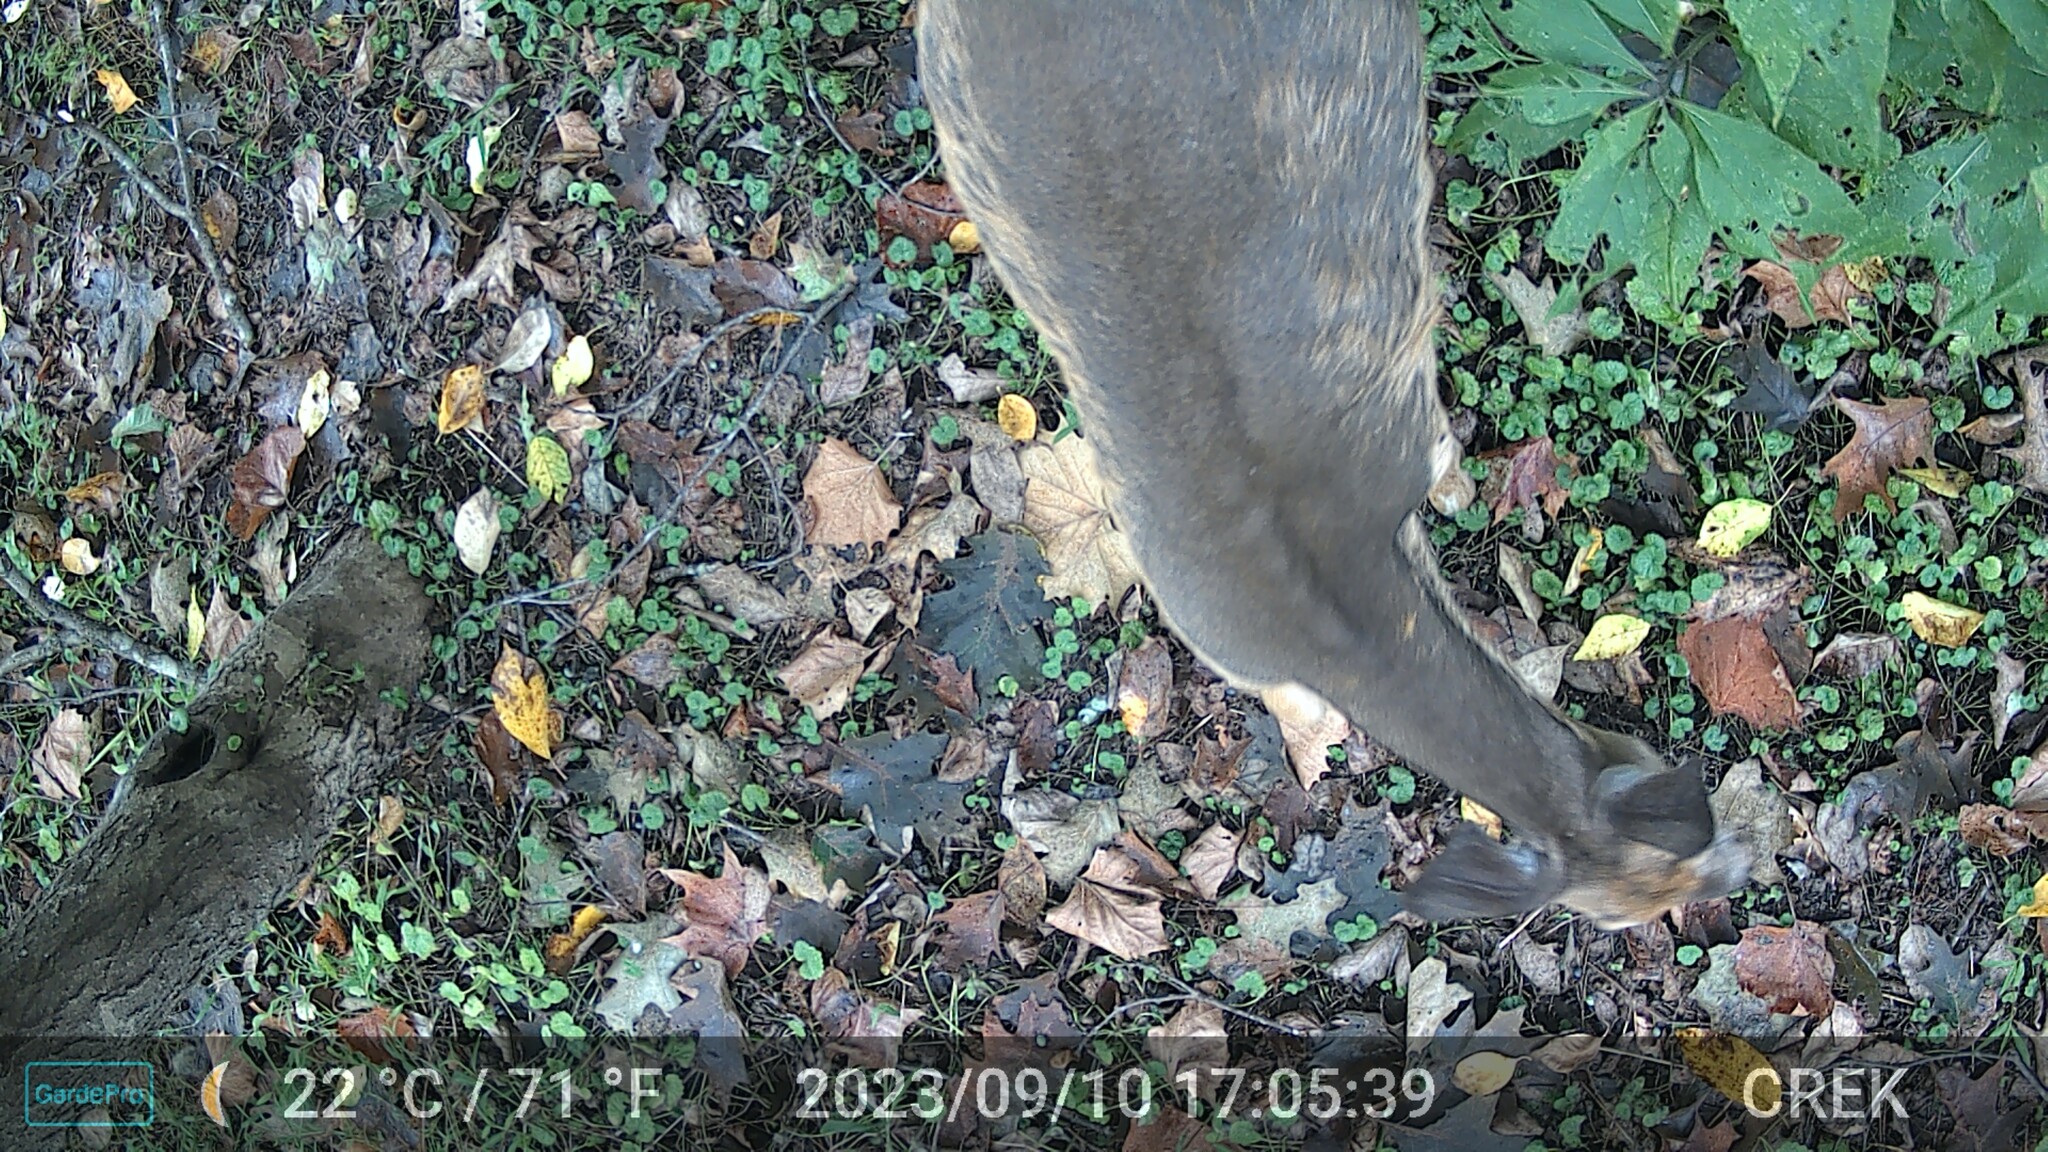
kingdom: Animalia
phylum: Chordata
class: Mammalia
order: Artiodactyla
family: Cervidae
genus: Odocoileus
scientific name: Odocoileus virginianus
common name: White-tailed deer
